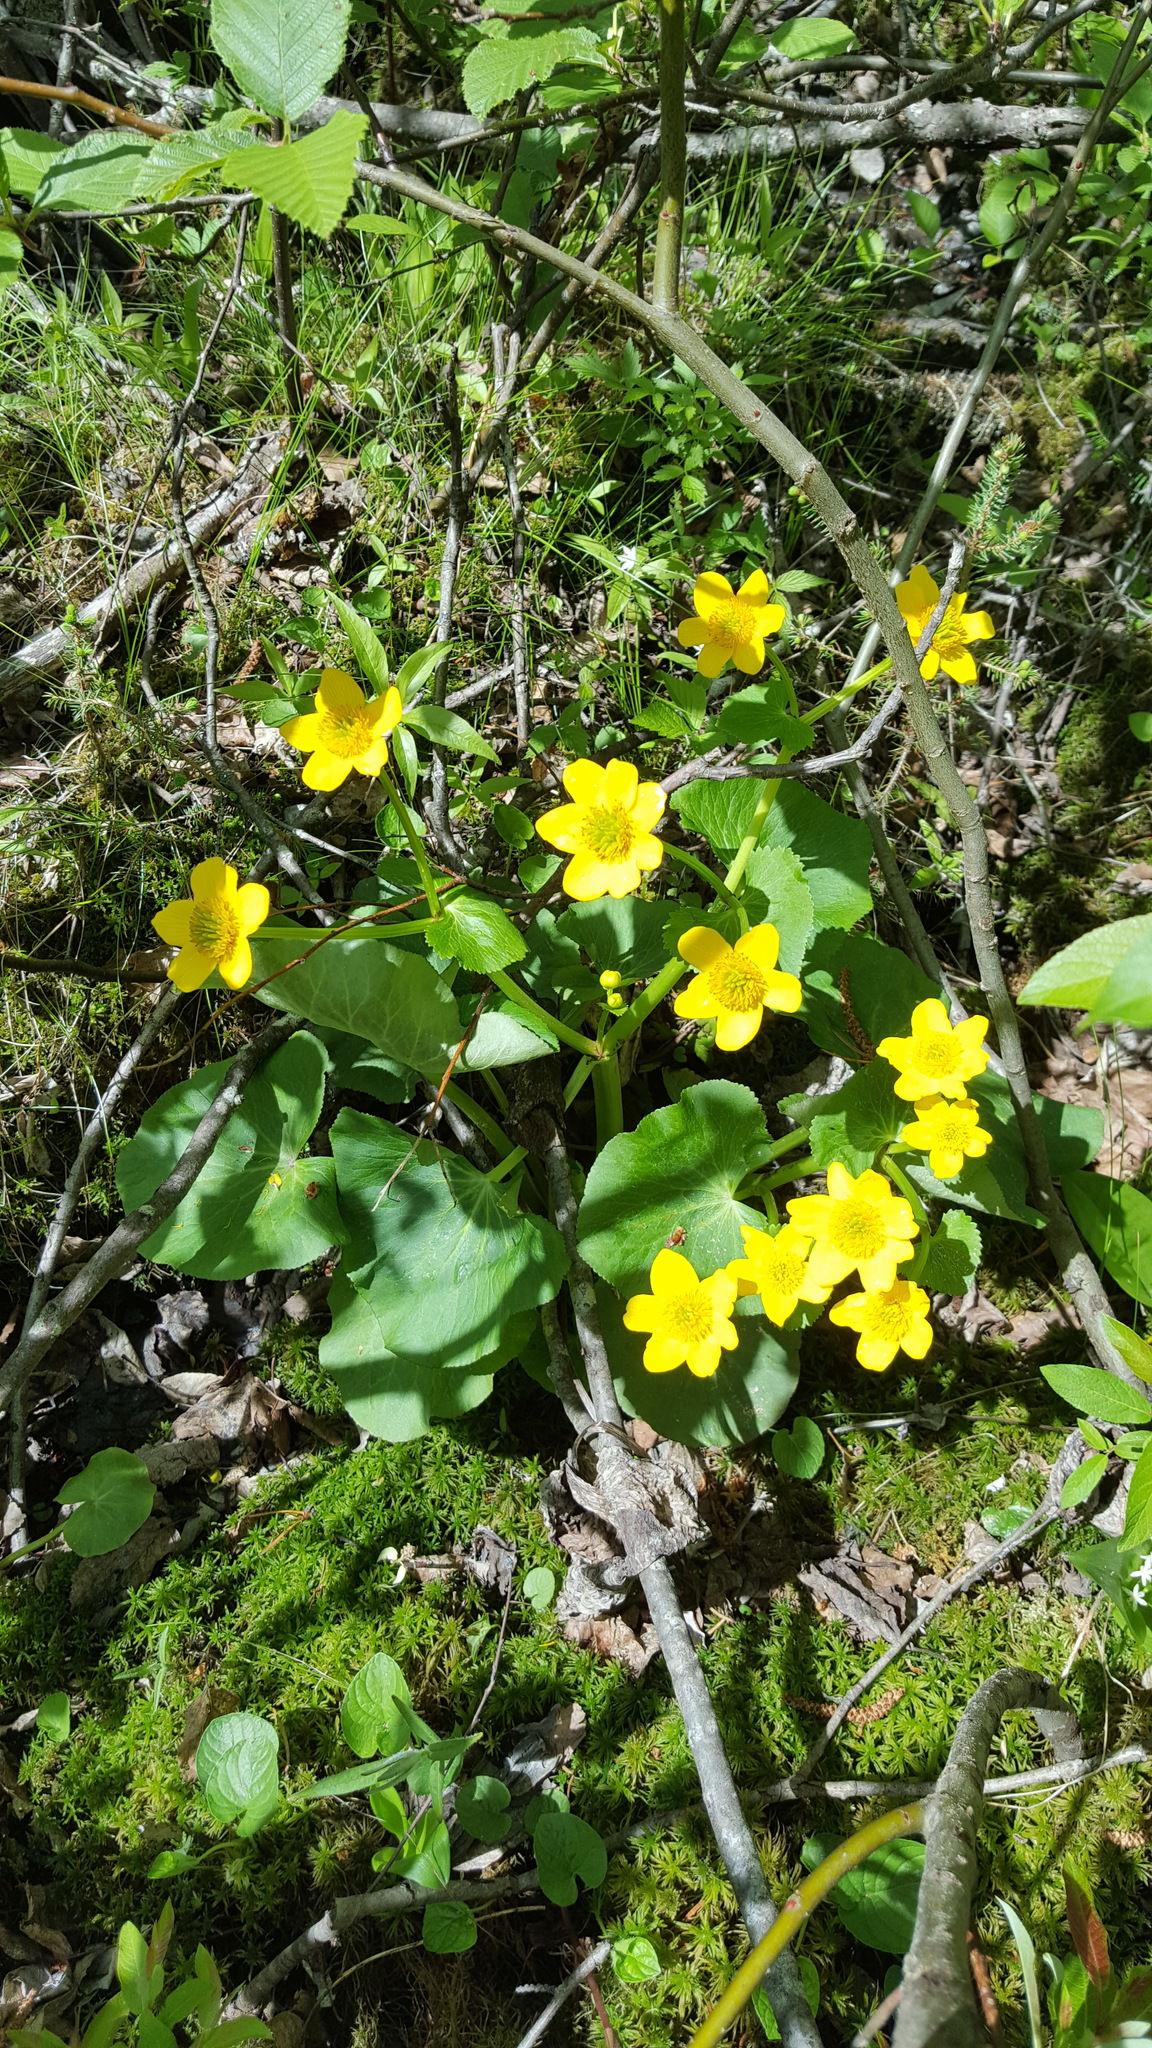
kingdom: Plantae
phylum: Tracheophyta
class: Magnoliopsida
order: Ranunculales
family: Ranunculaceae
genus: Caltha
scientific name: Caltha palustris
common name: Marsh marigold
